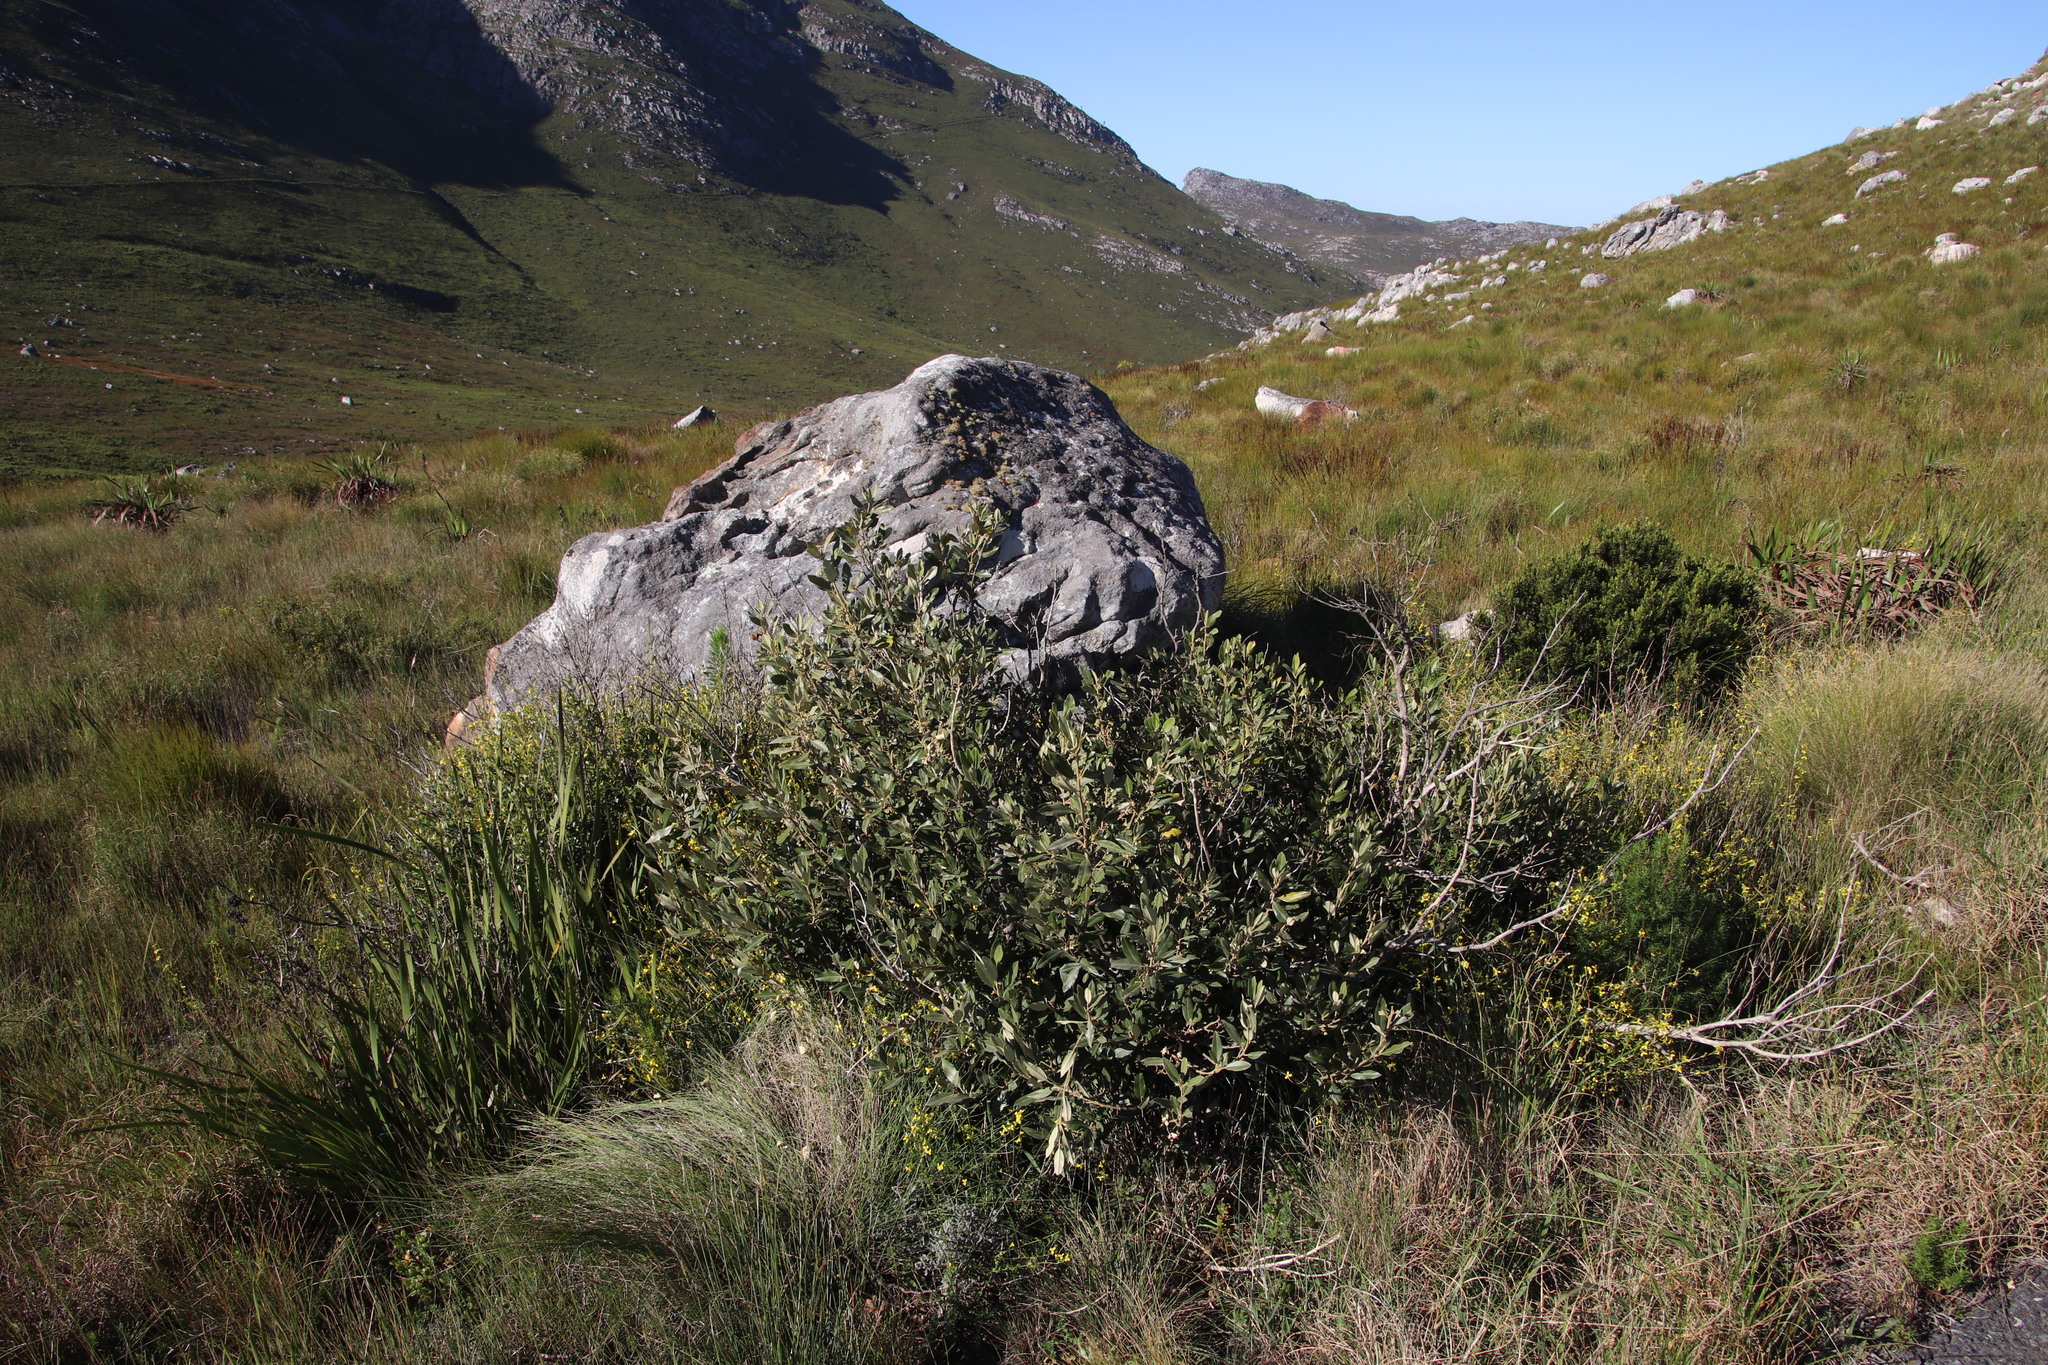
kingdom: Plantae
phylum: Tracheophyta
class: Magnoliopsida
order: Malpighiales
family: Achariaceae
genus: Kiggelaria
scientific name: Kiggelaria africana
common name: Wild peach
